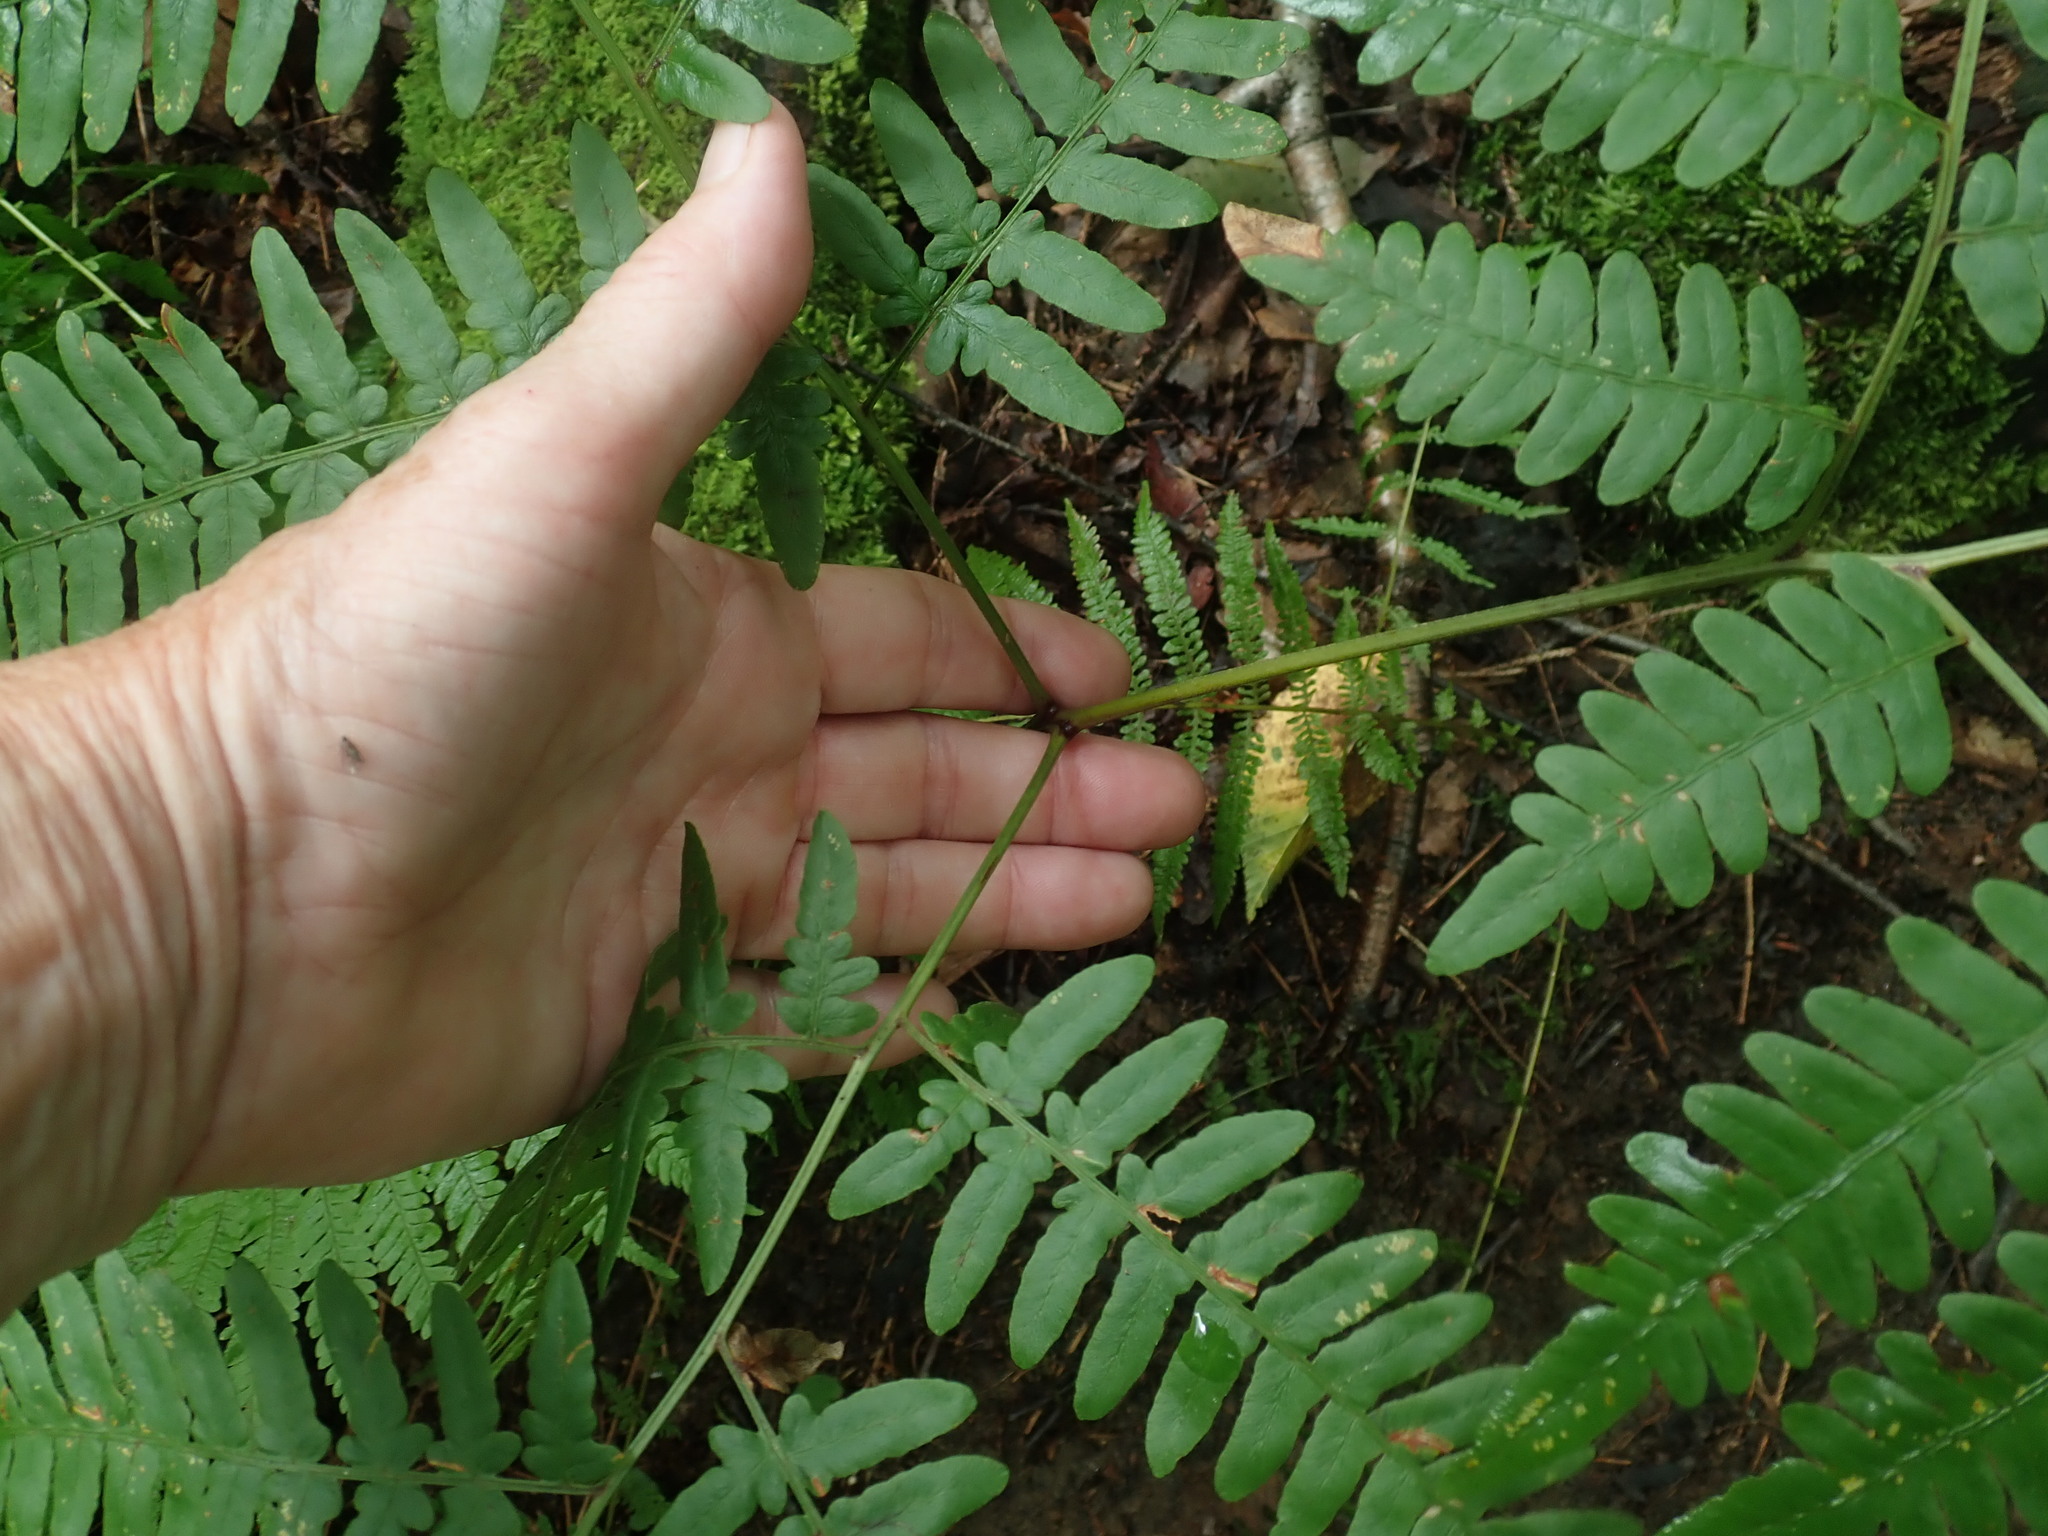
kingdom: Plantae
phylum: Tracheophyta
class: Polypodiopsida
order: Polypodiales
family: Dennstaedtiaceae
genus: Pteridium
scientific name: Pteridium aquilinum
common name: Bracken
